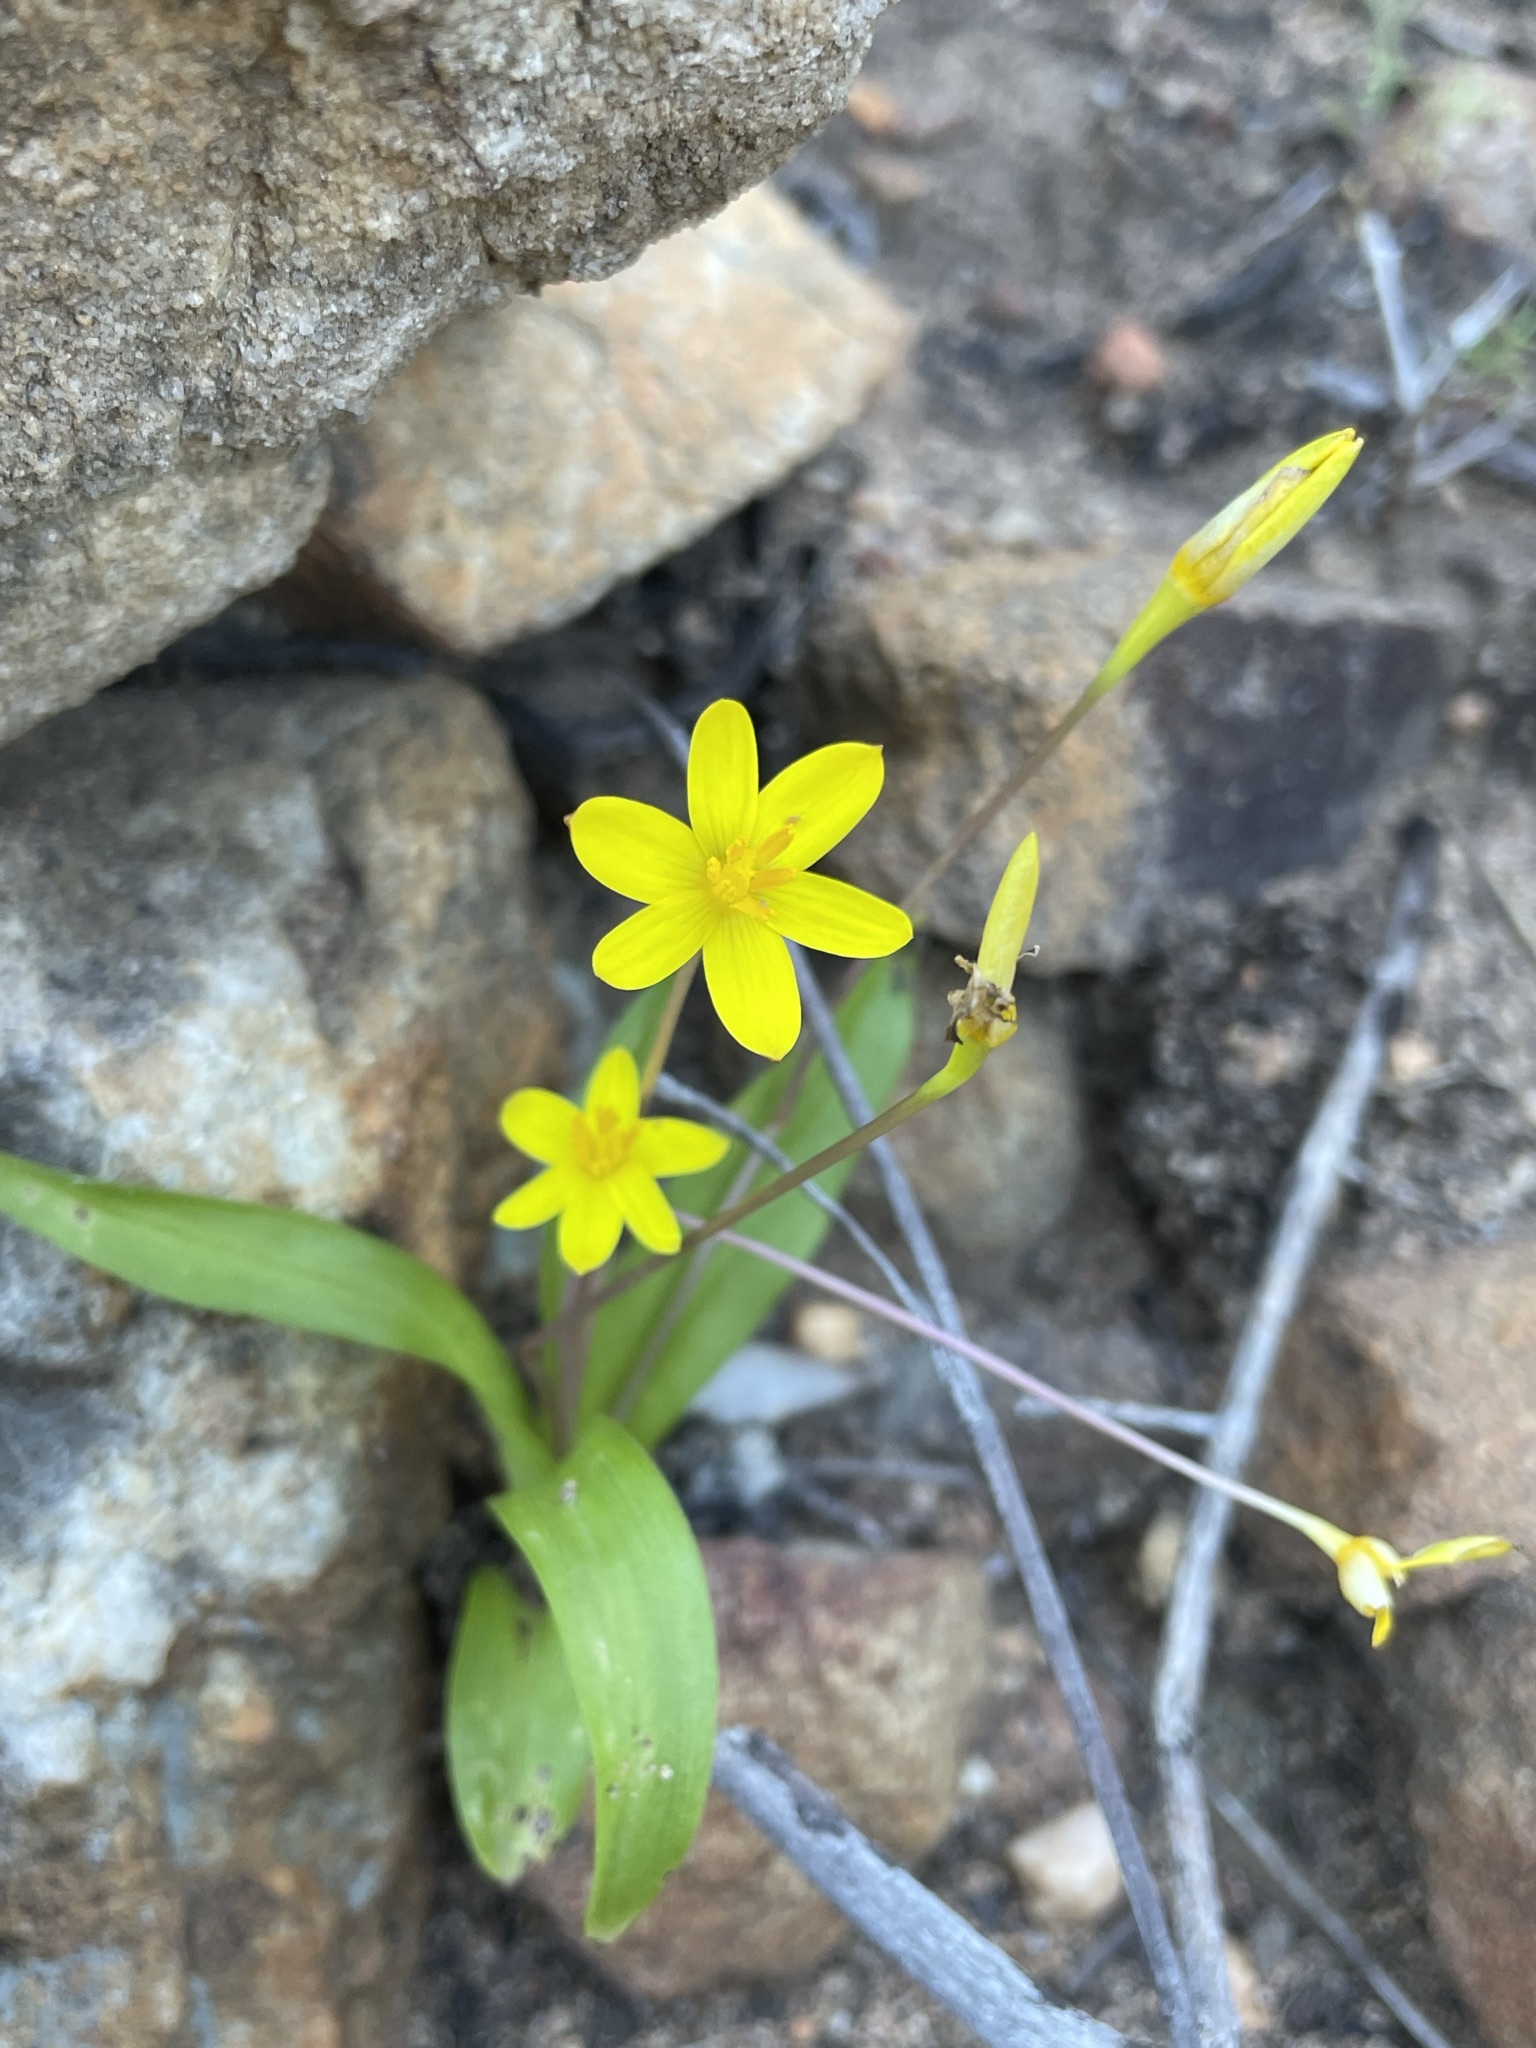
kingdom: Plantae
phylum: Tracheophyta
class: Liliopsida
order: Asparagales
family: Hypoxidaceae
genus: Pauridia
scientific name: Pauridia gracilipes
